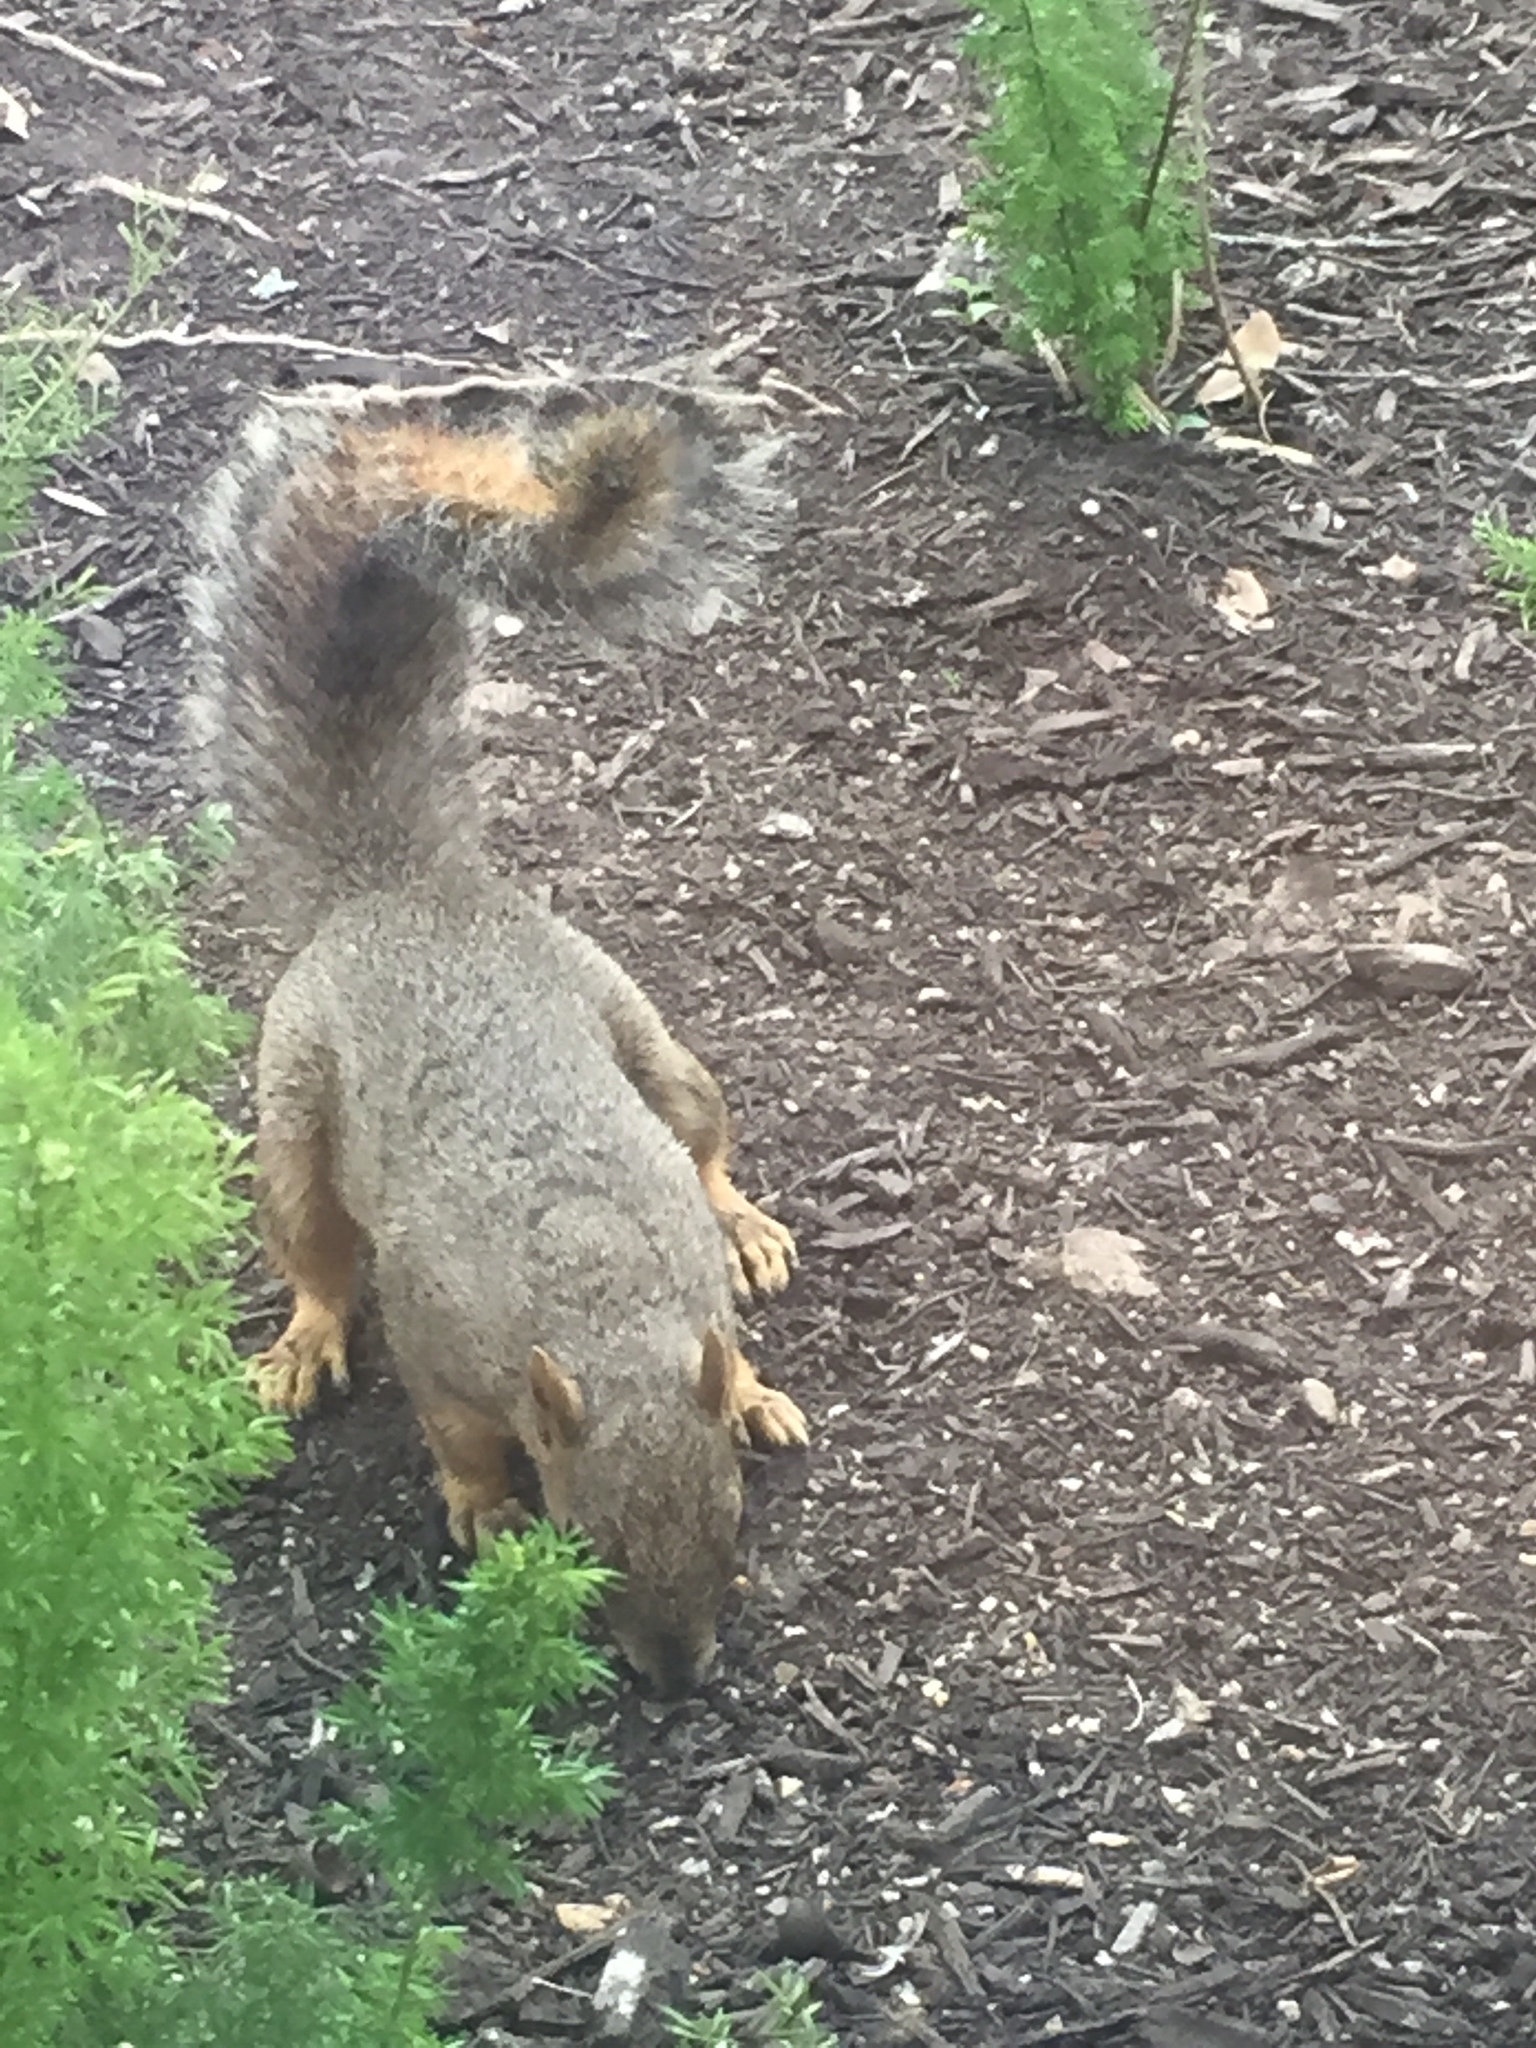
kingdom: Animalia
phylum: Chordata
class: Mammalia
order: Rodentia
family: Sciuridae
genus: Sciurus
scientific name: Sciurus niger
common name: Fox squirrel
